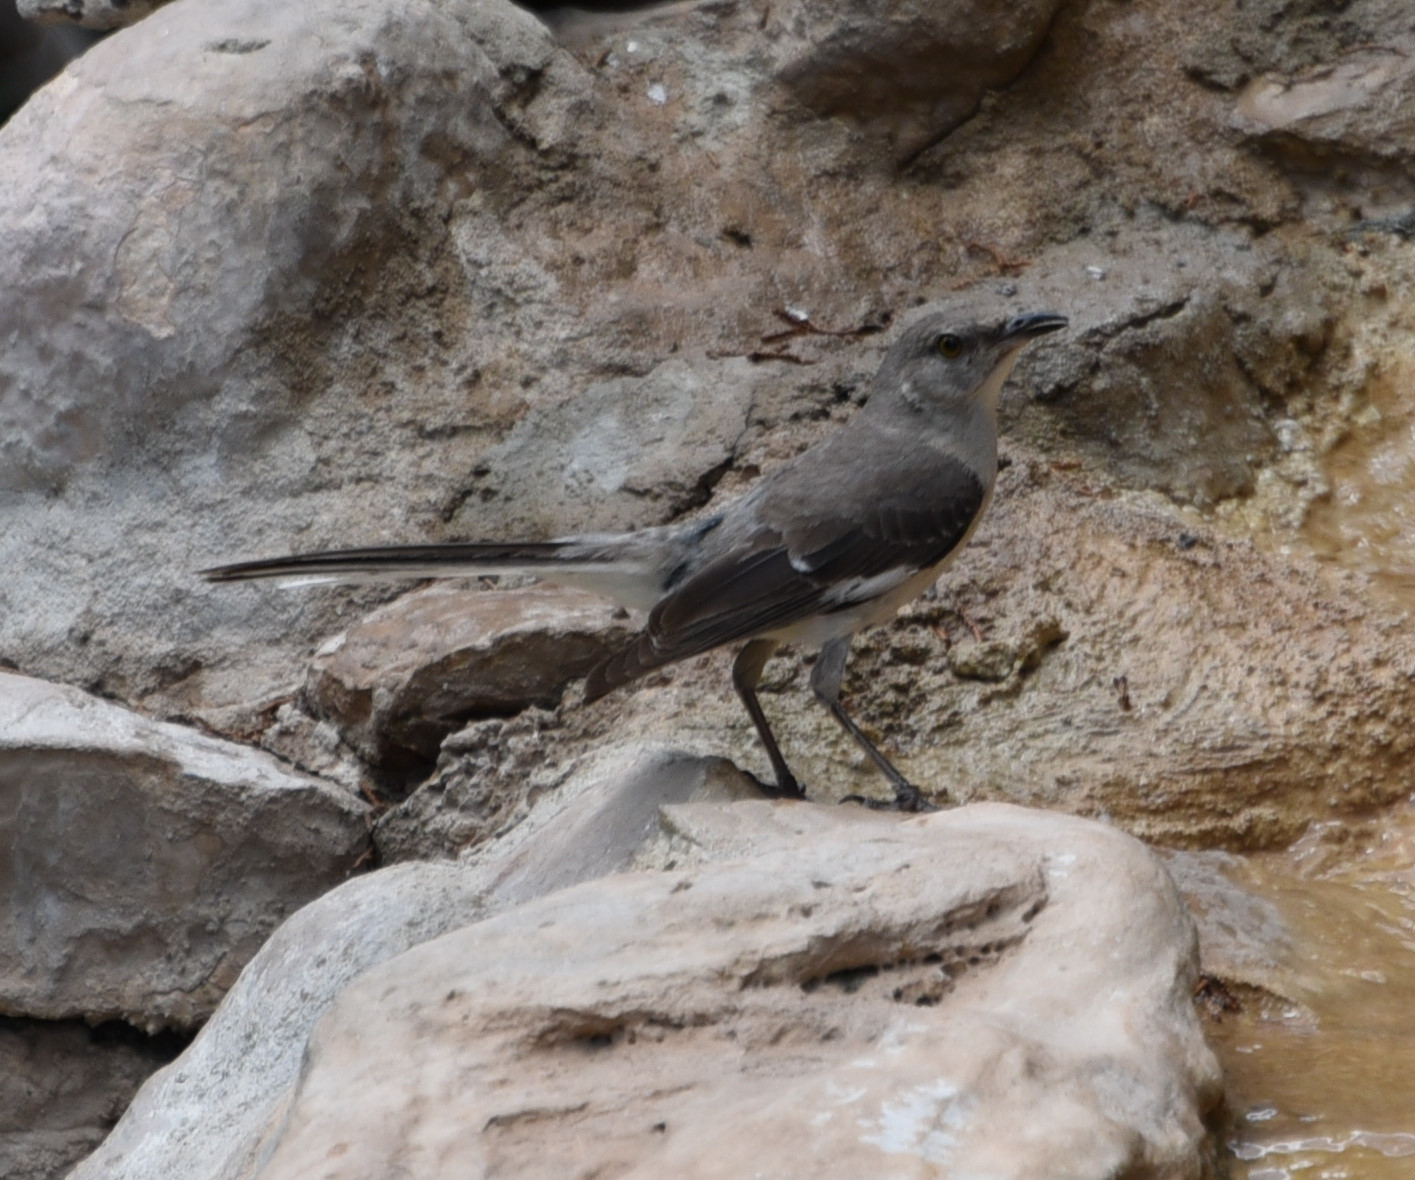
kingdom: Animalia
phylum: Chordata
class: Aves
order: Passeriformes
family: Mimidae
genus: Mimus
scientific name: Mimus polyglottos
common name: Northern mockingbird
